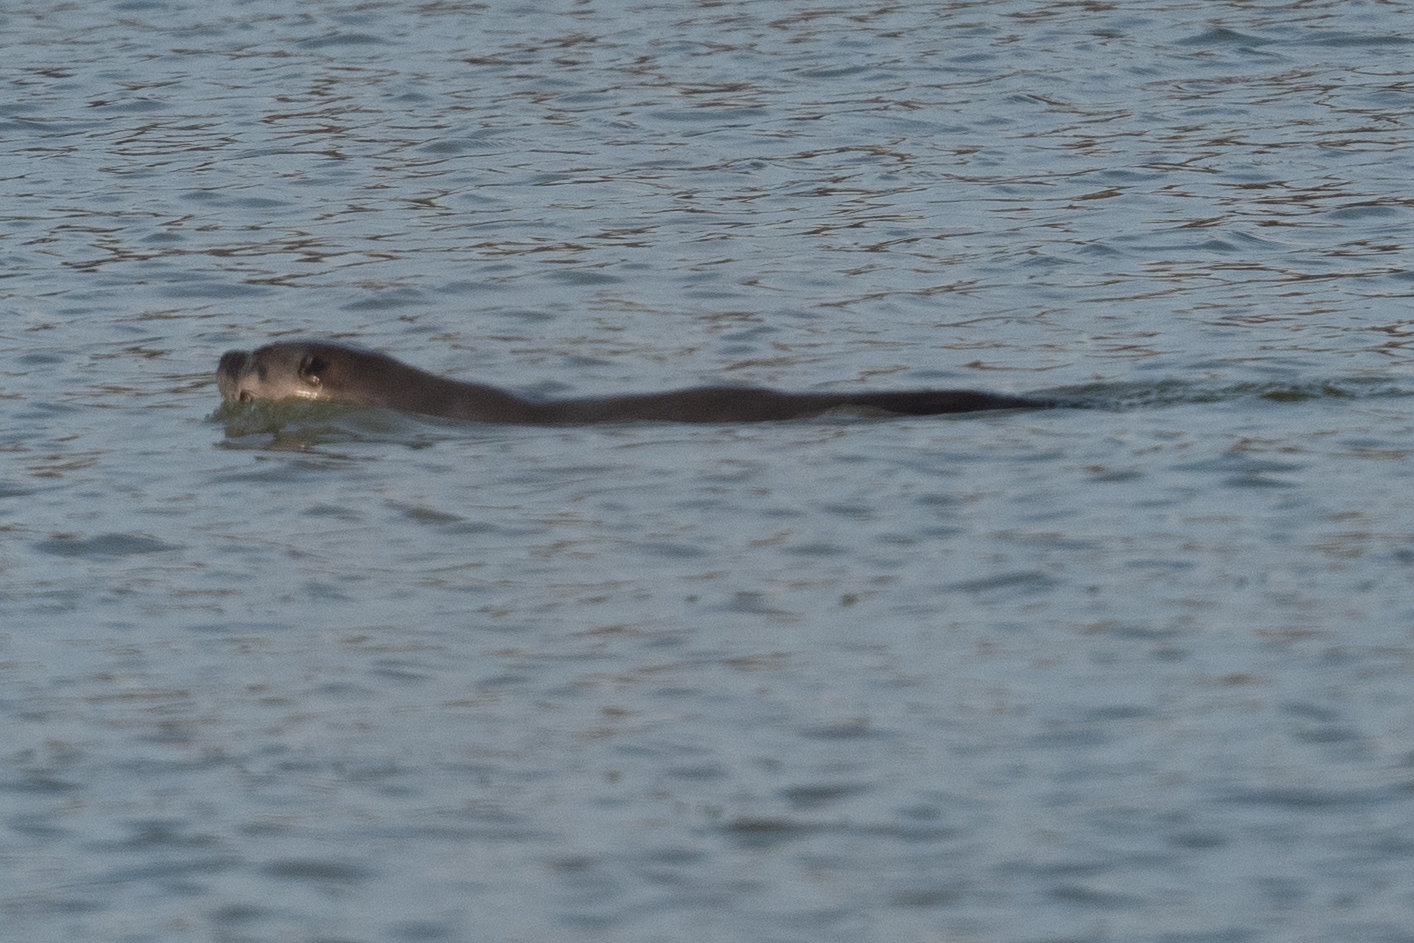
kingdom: Animalia
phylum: Chordata
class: Mammalia
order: Carnivora
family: Mustelidae
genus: Lontra
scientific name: Lontra canadensis
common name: North american river otter
